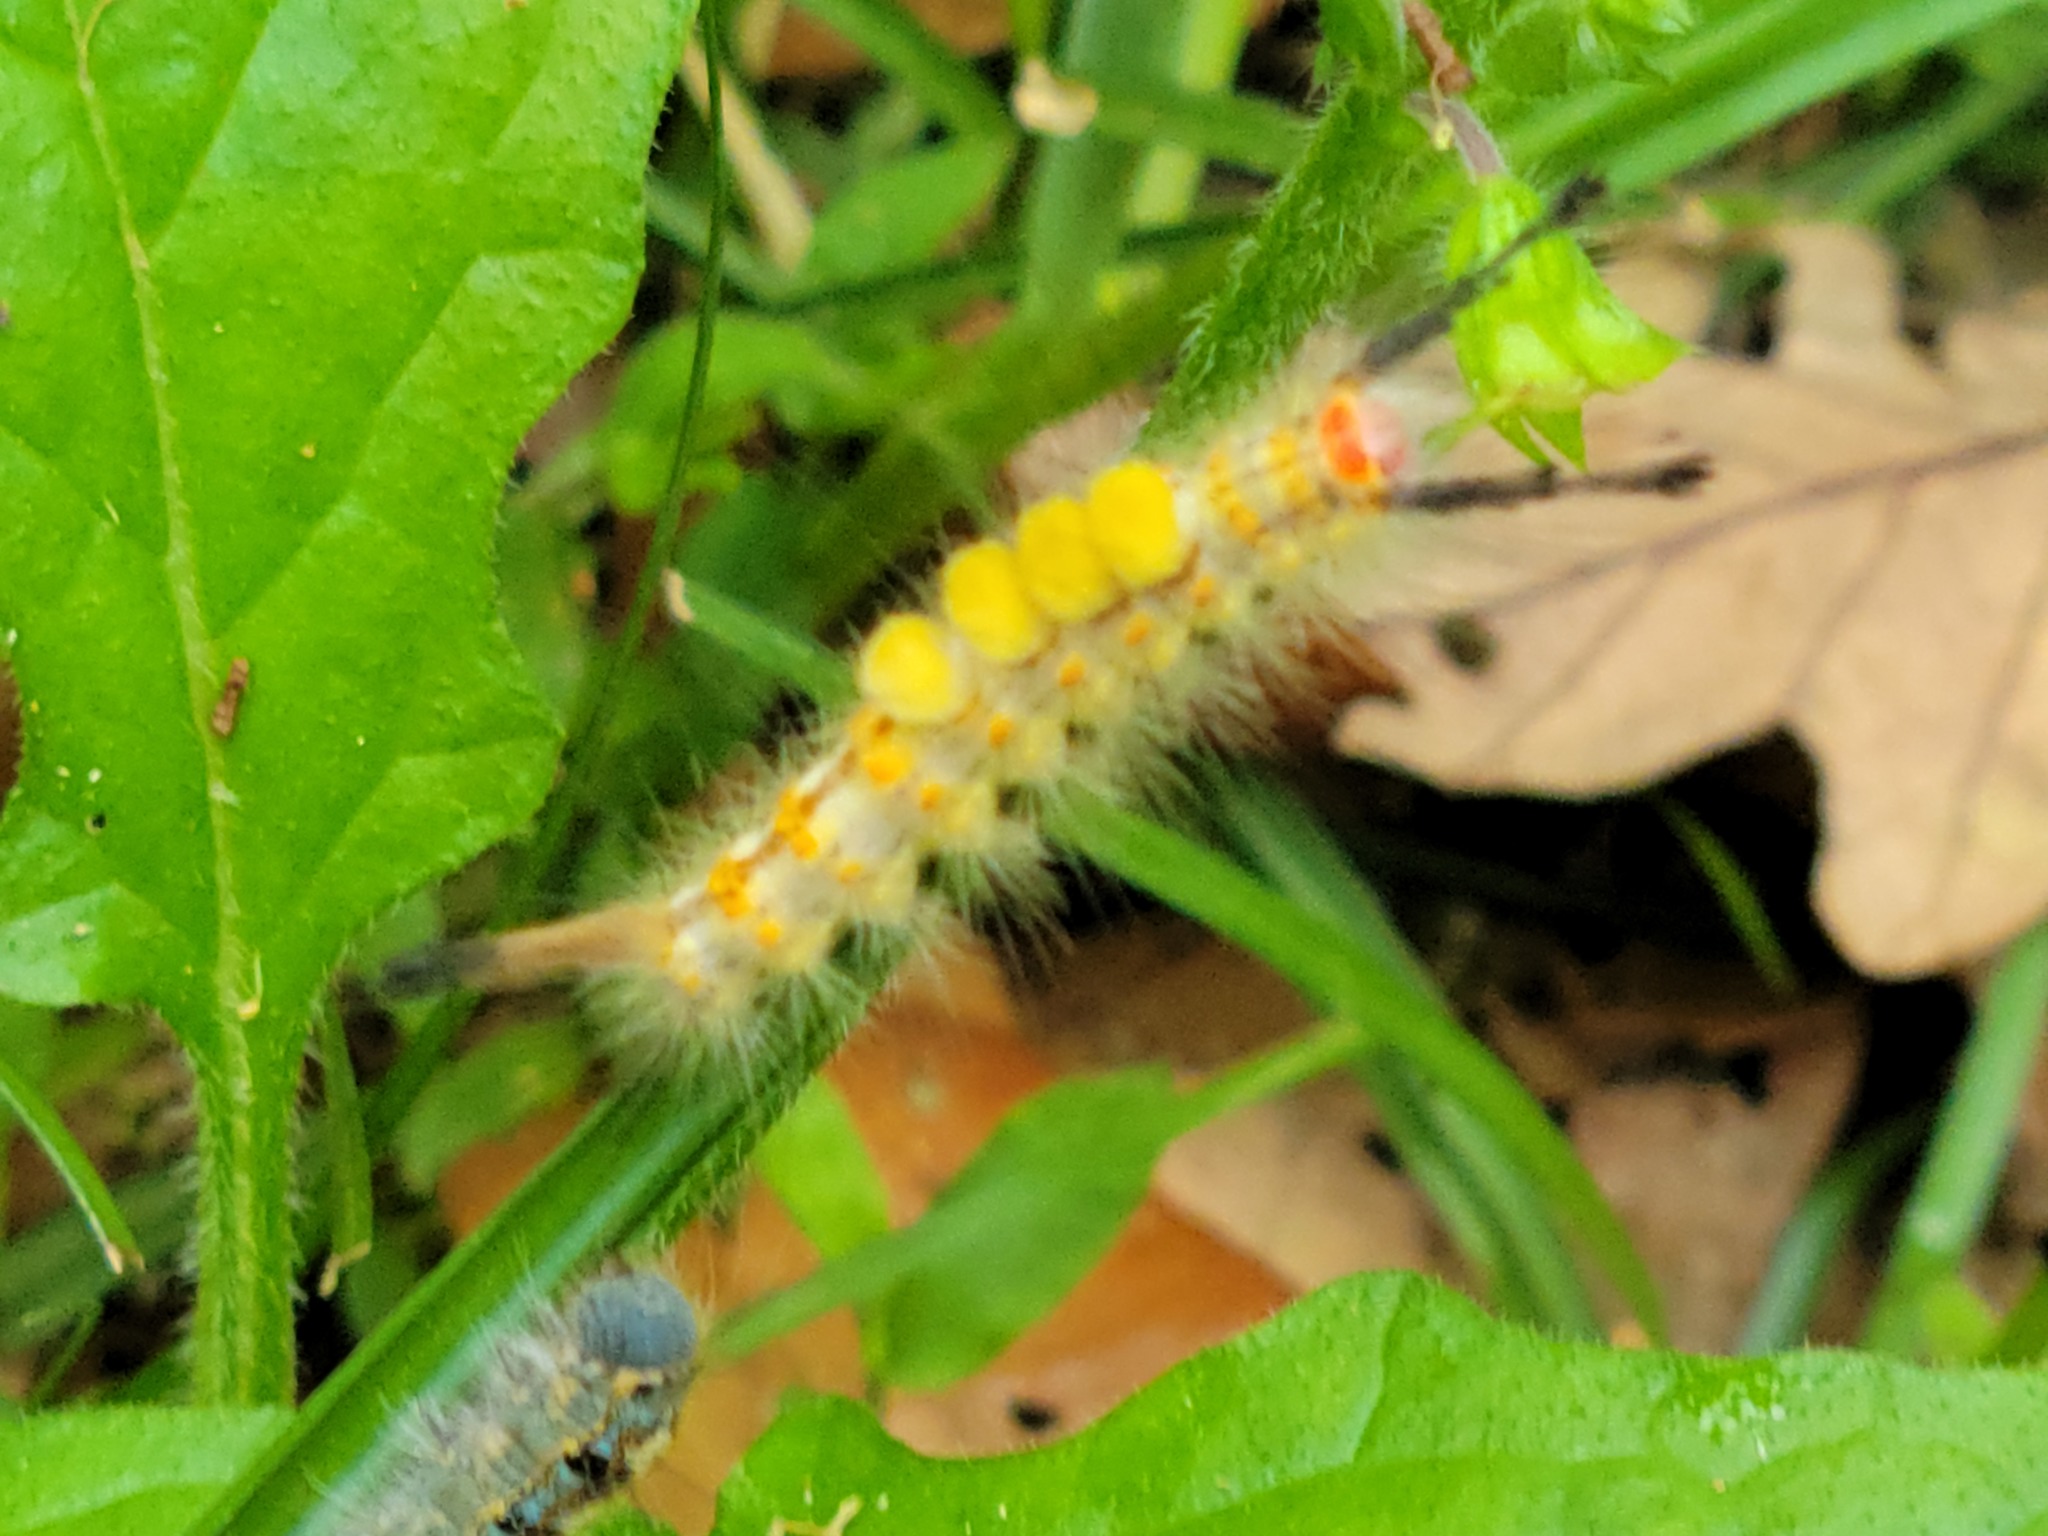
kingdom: Animalia
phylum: Arthropoda
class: Insecta
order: Lepidoptera
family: Erebidae
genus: Orgyia
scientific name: Orgyia detrita
